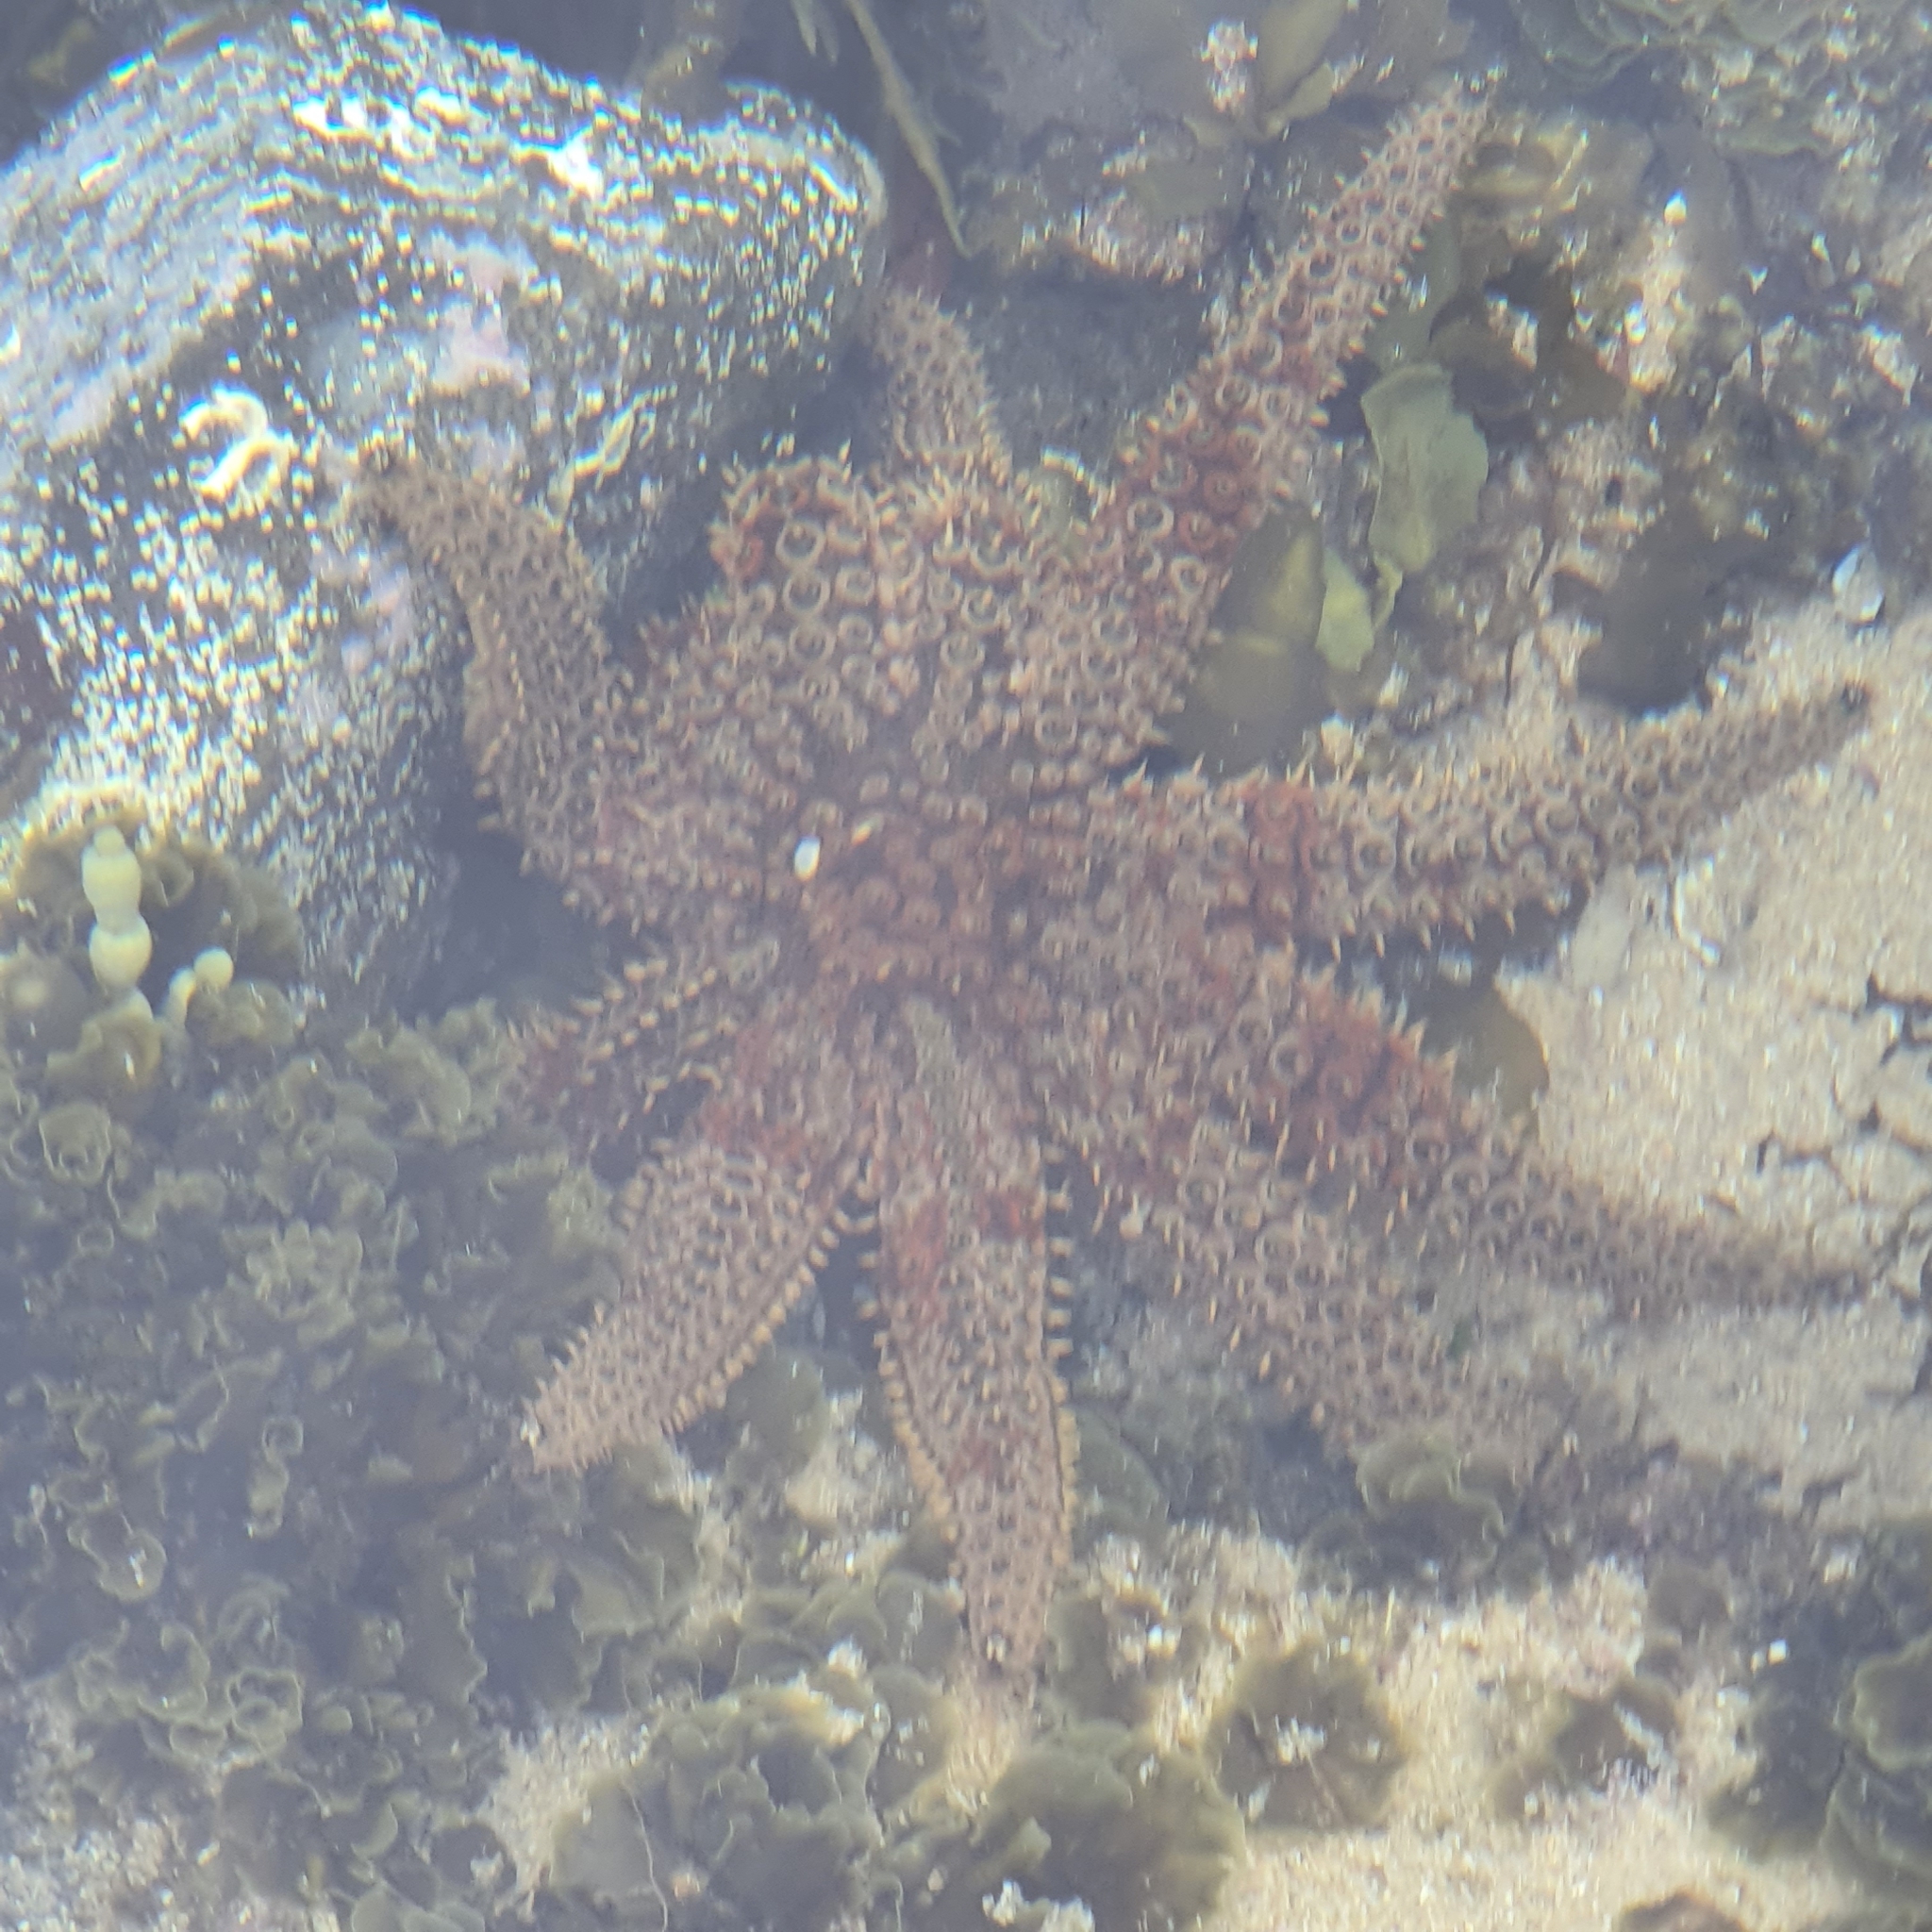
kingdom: Animalia
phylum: Echinodermata
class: Asteroidea
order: Forcipulatida
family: Asteriidae
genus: Coscinasterias
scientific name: Coscinasterias muricata
